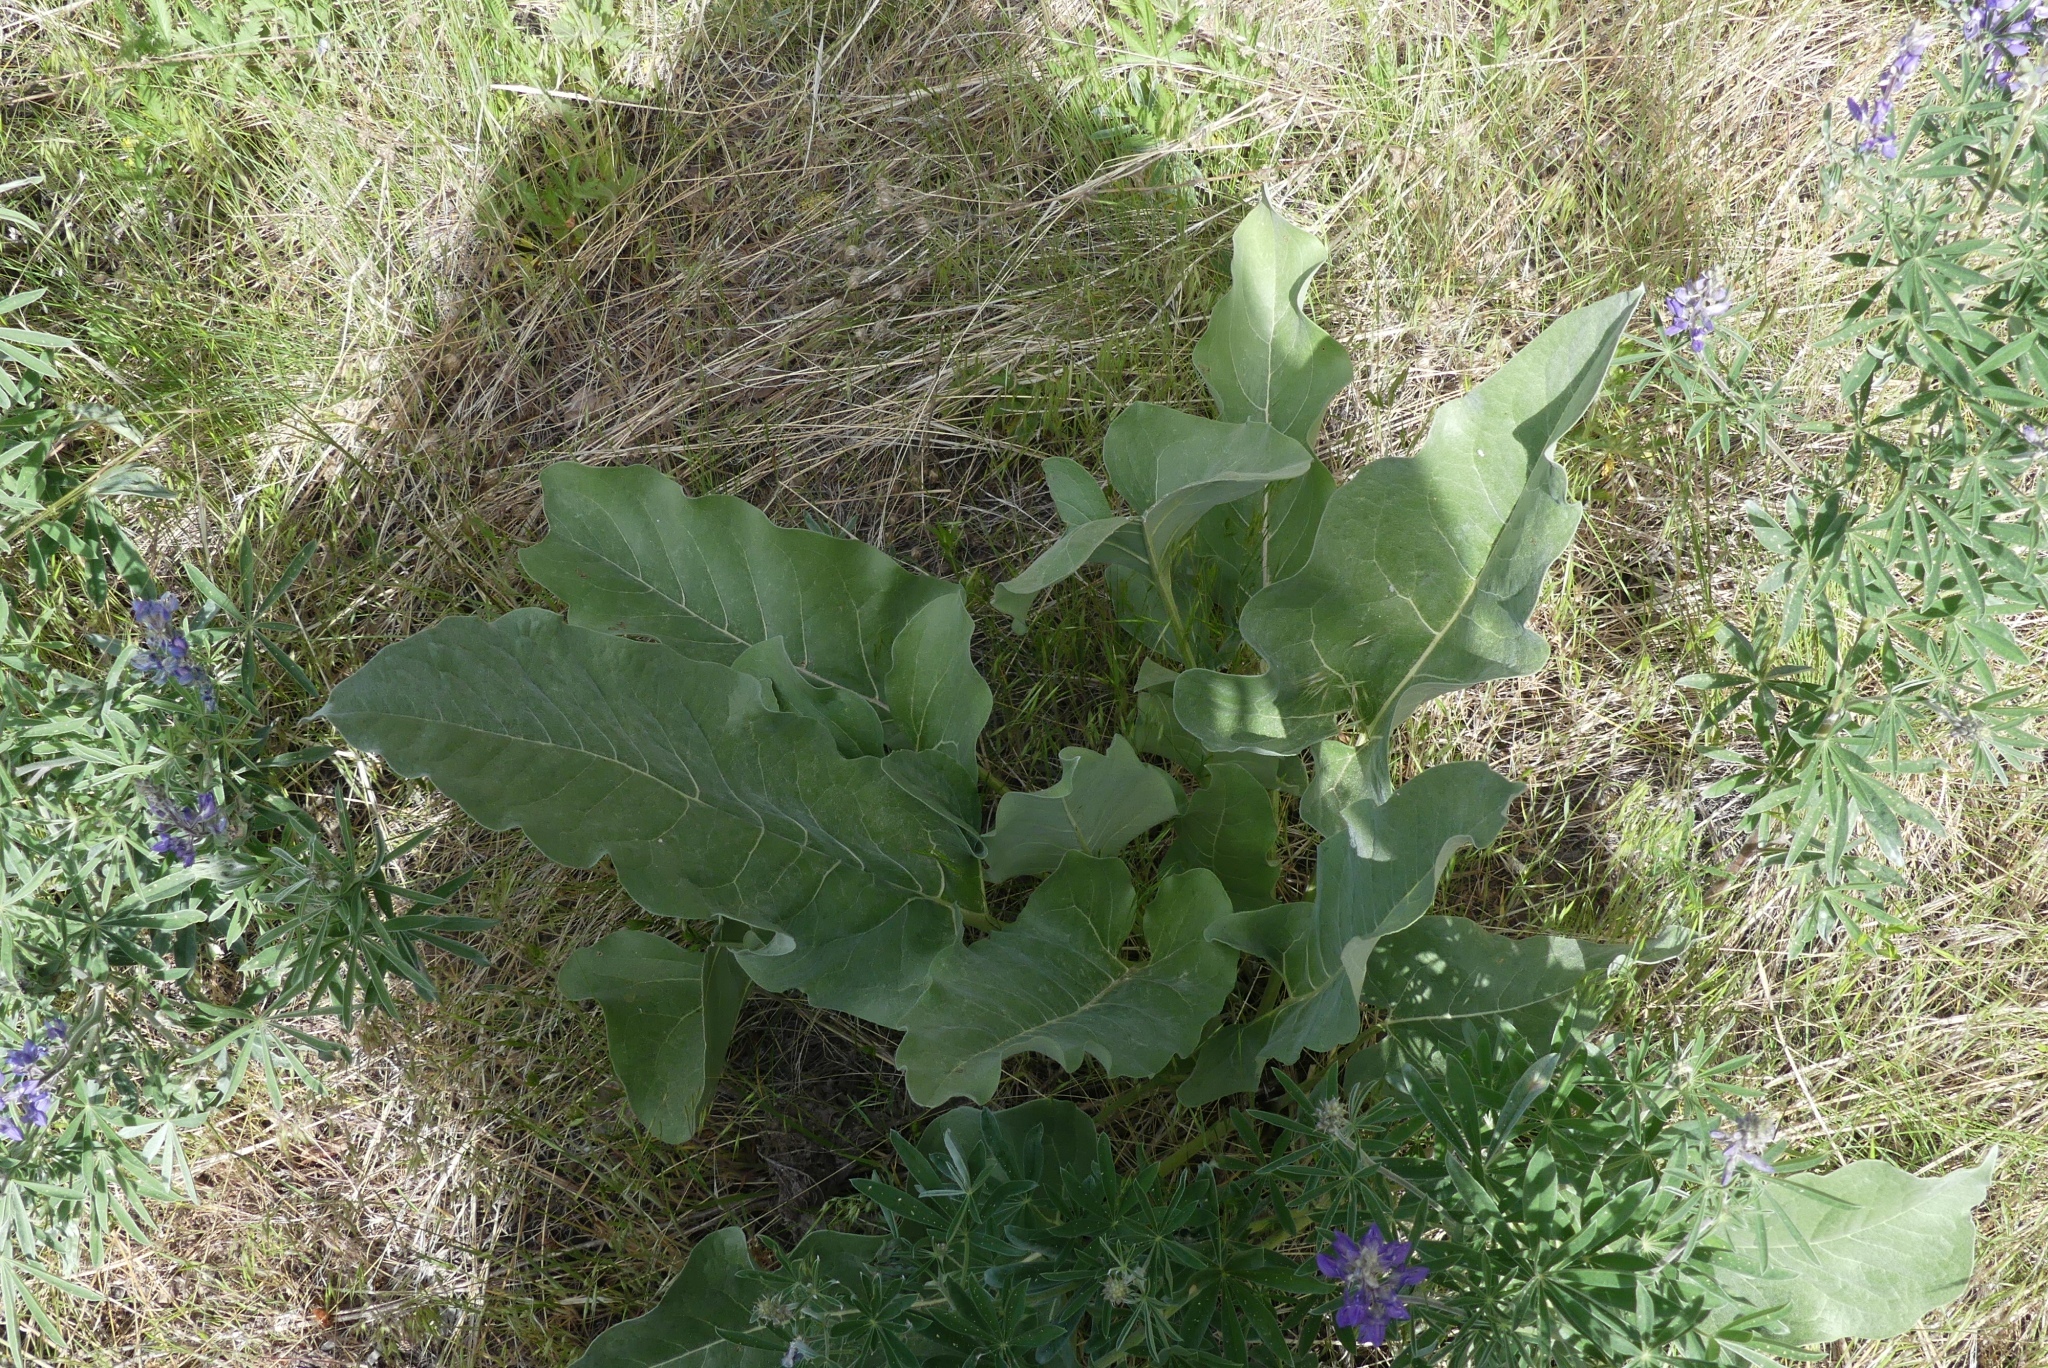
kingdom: Plantae
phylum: Tracheophyta
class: Magnoliopsida
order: Asterales
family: Asteraceae
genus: Wyethia
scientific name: Wyethia sagittata
